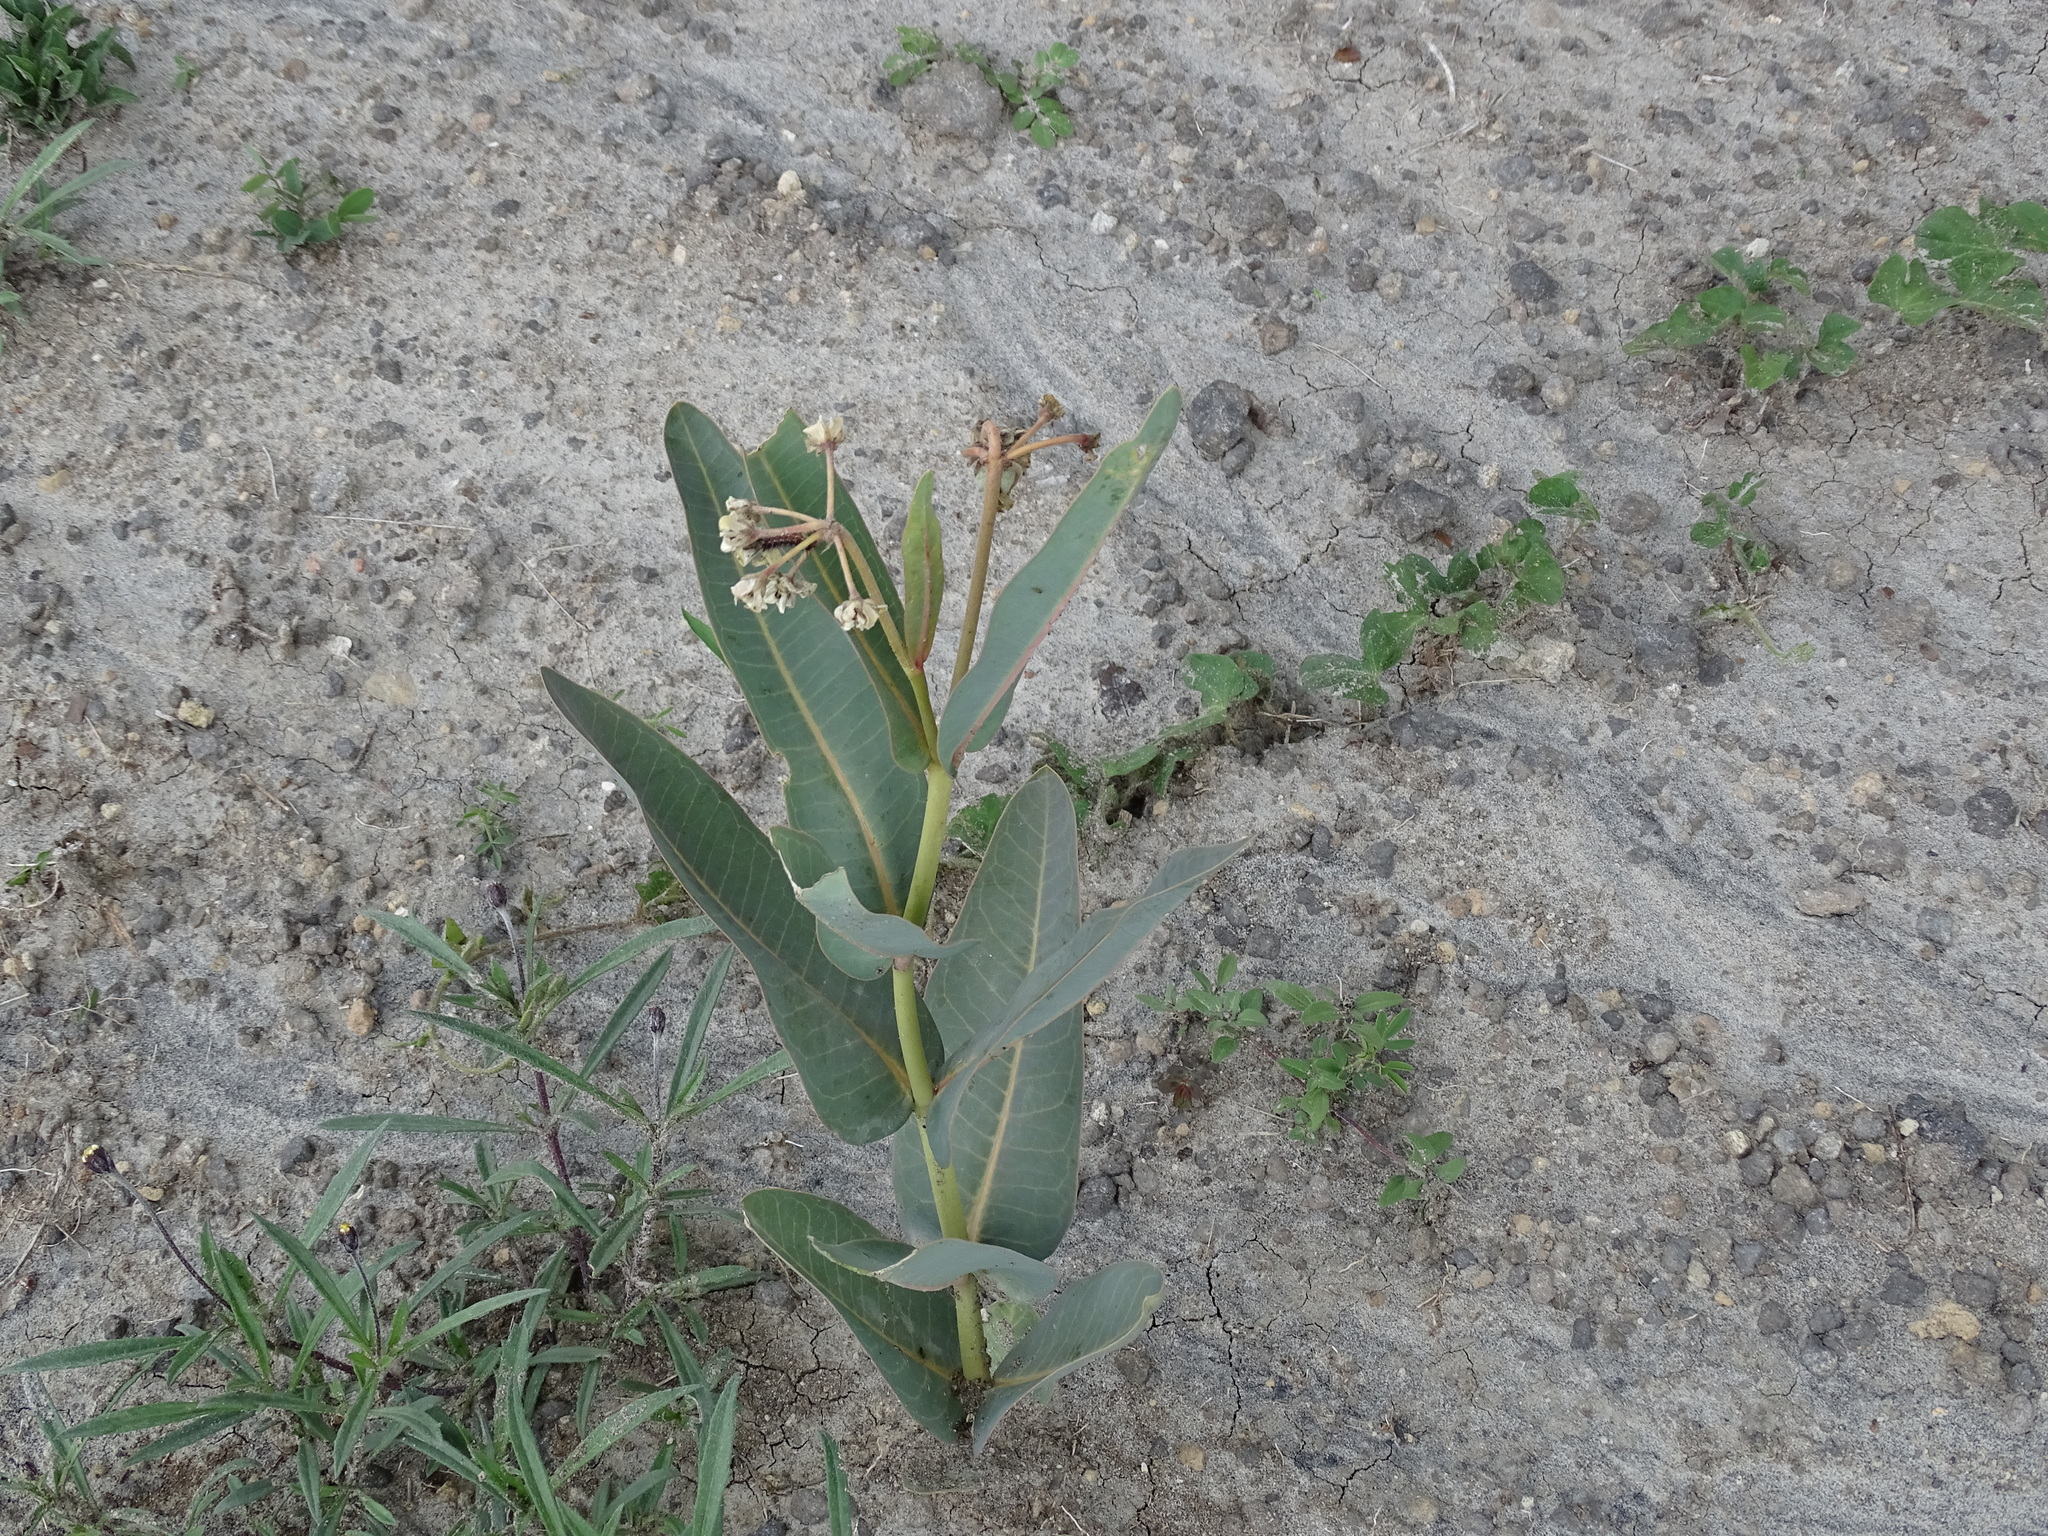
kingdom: Plantae
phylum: Tracheophyta
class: Magnoliopsida
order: Gentianales
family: Apocynaceae
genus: Asclepias
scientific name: Asclepias glaucescens
